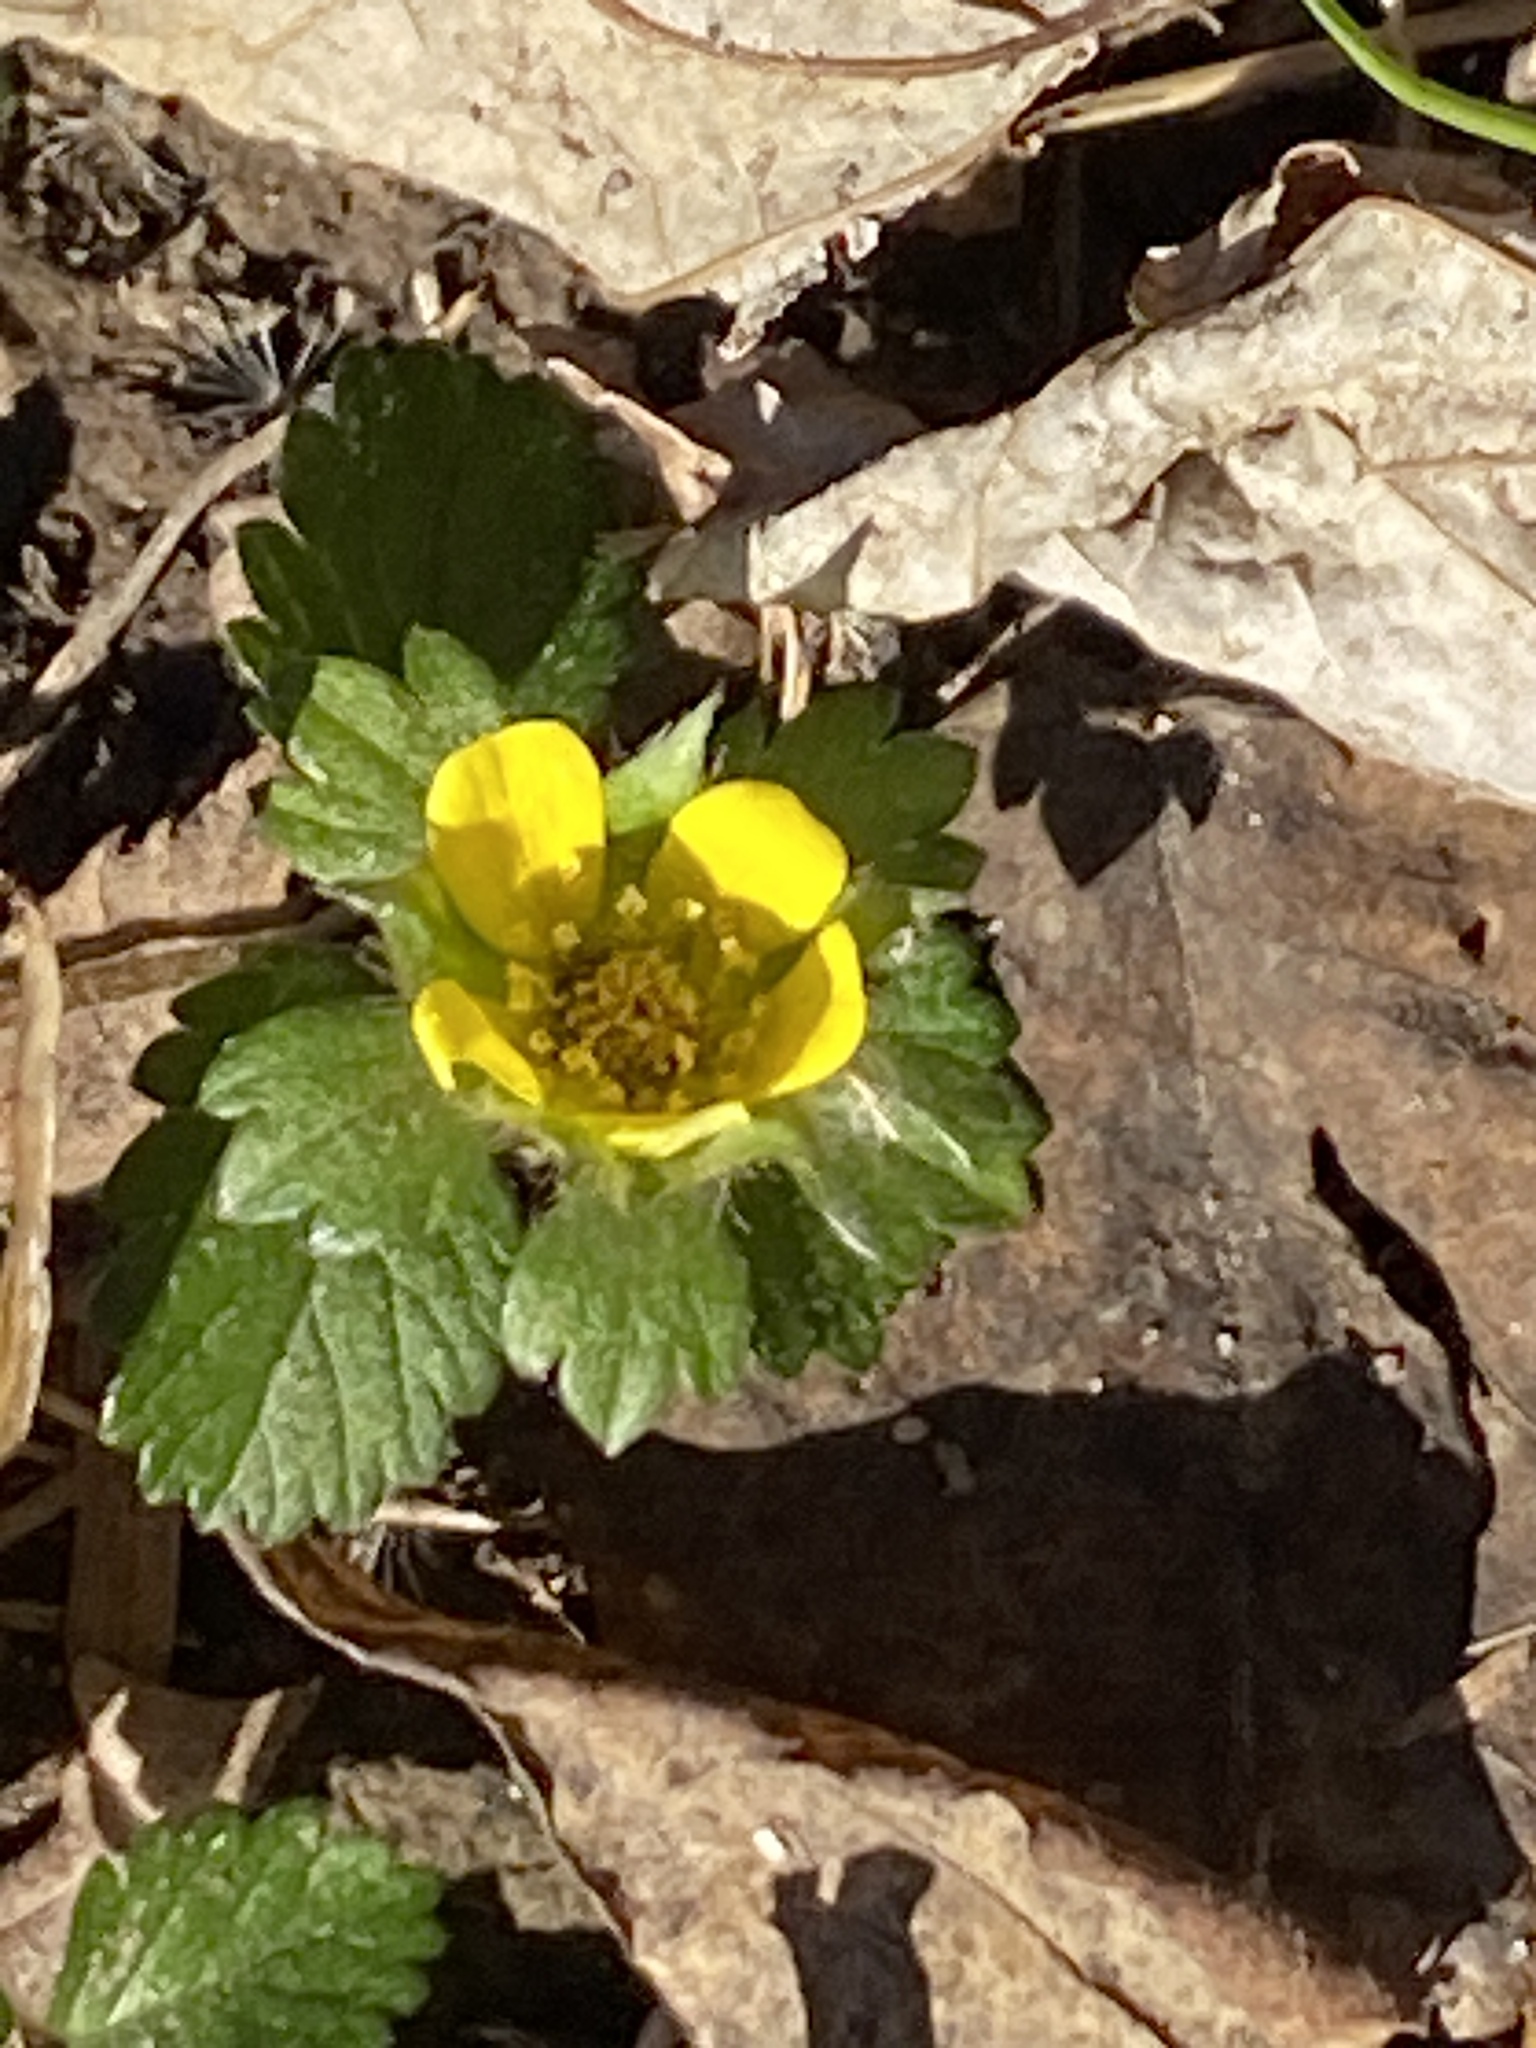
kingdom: Plantae
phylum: Tracheophyta
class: Magnoliopsida
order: Rosales
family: Rosaceae
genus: Potentilla
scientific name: Potentilla indica
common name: Yellow-flowered strawberry
